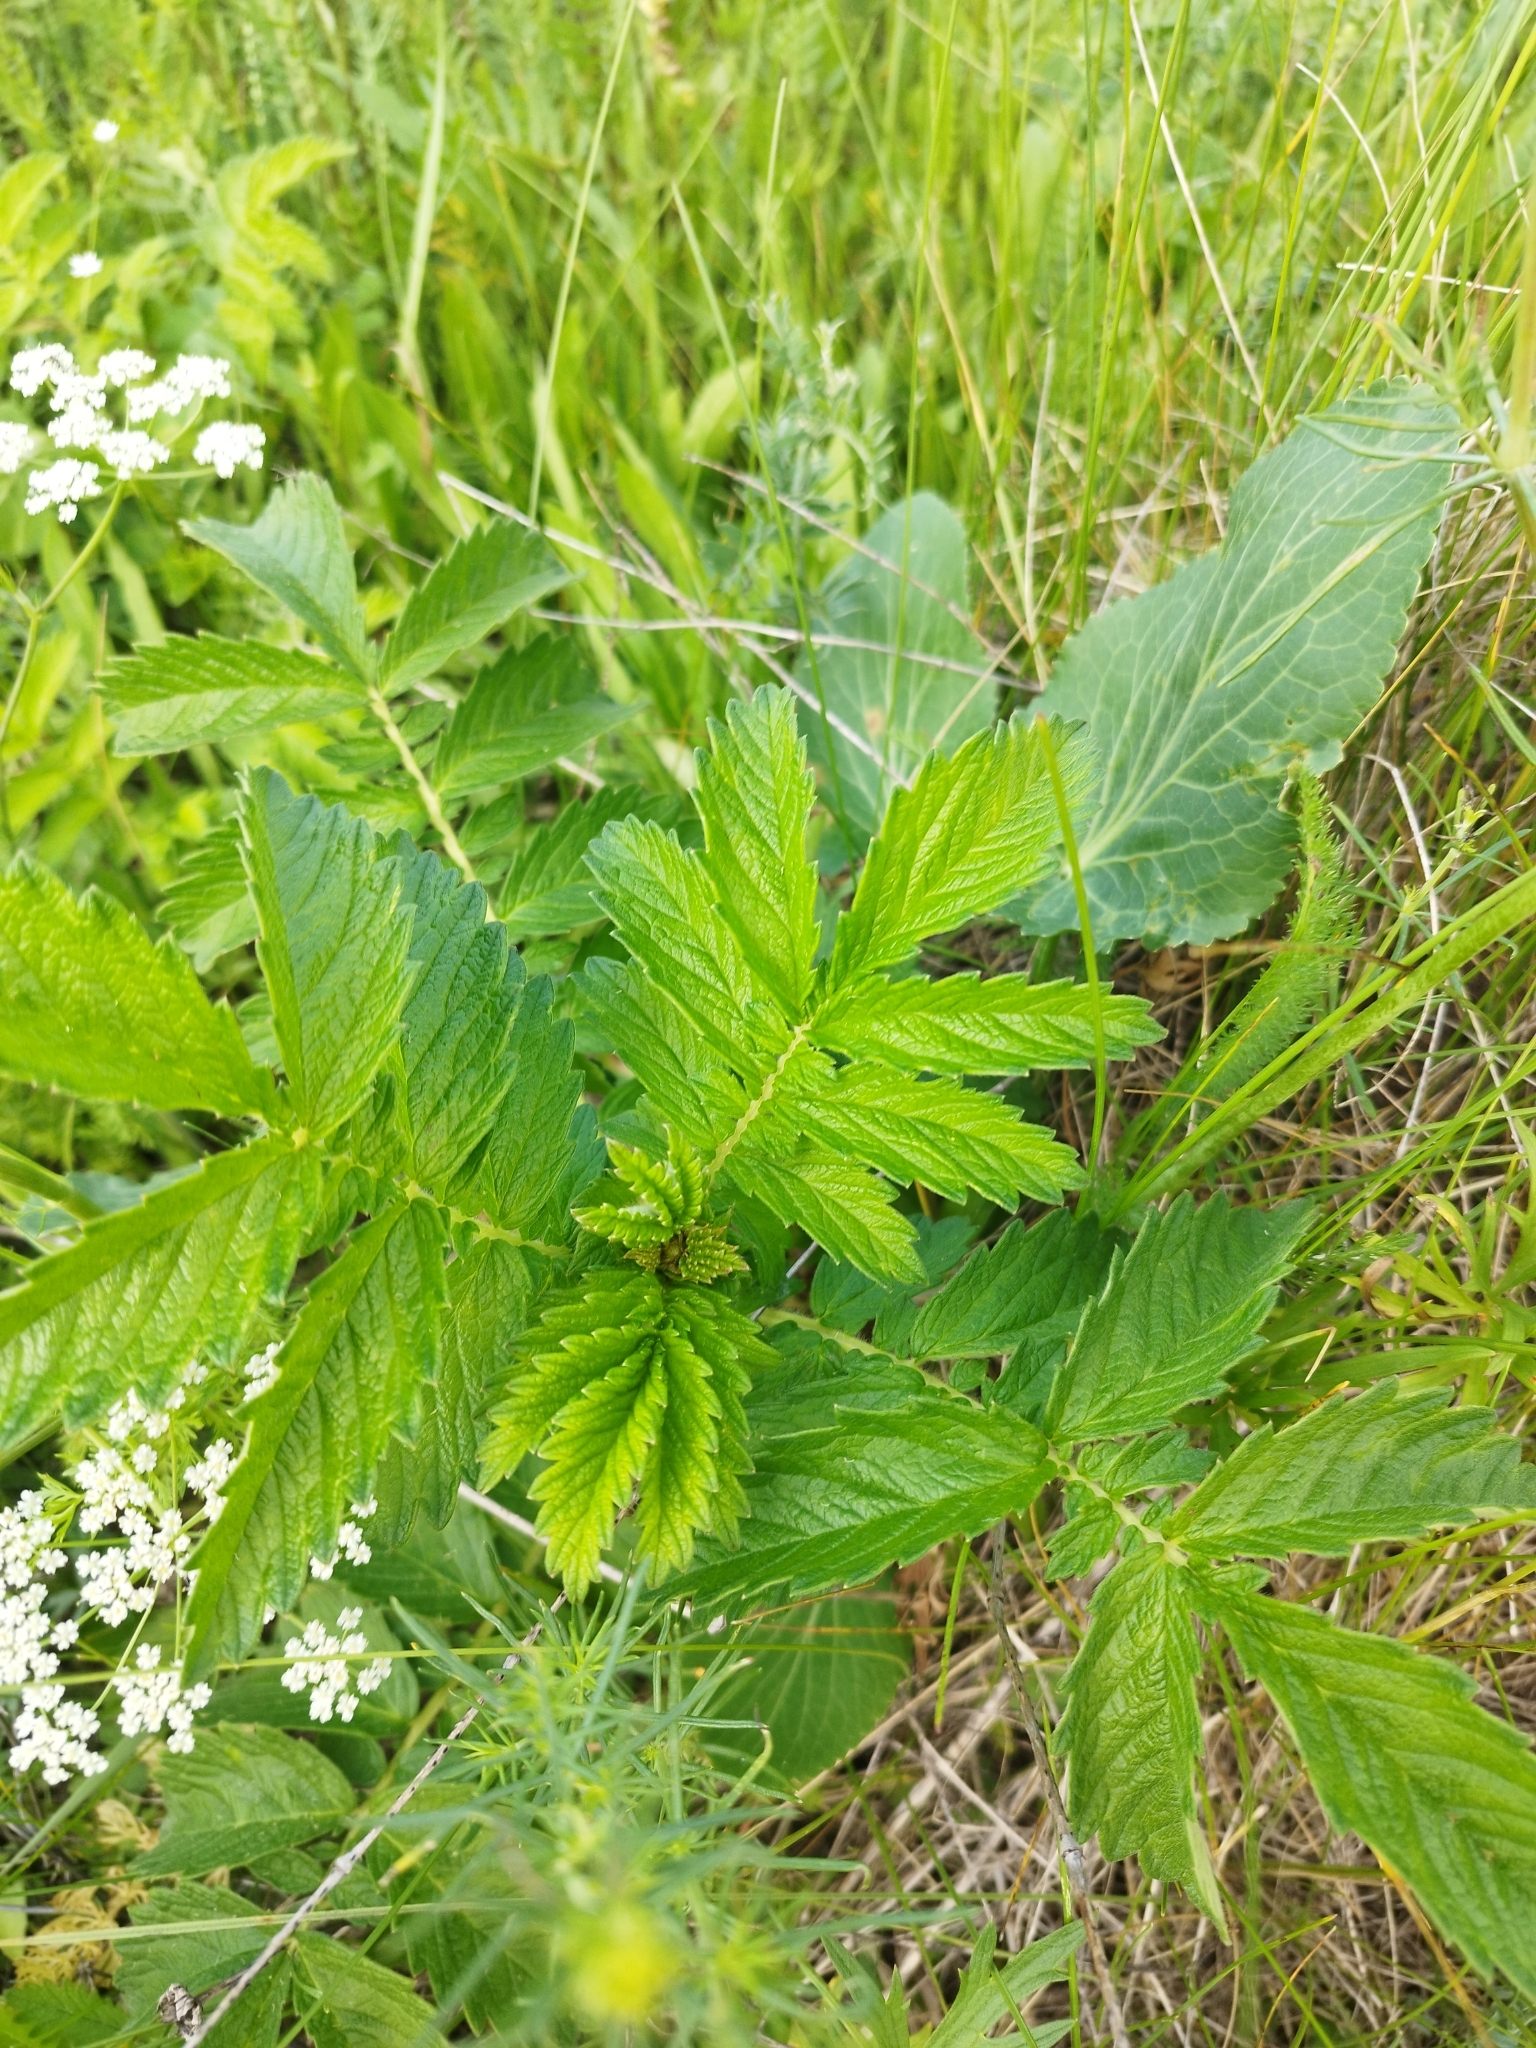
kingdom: Plantae
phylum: Tracheophyta
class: Magnoliopsida
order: Rosales
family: Rosaceae
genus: Agrimonia
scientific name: Agrimonia eupatoria
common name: Agrimony
